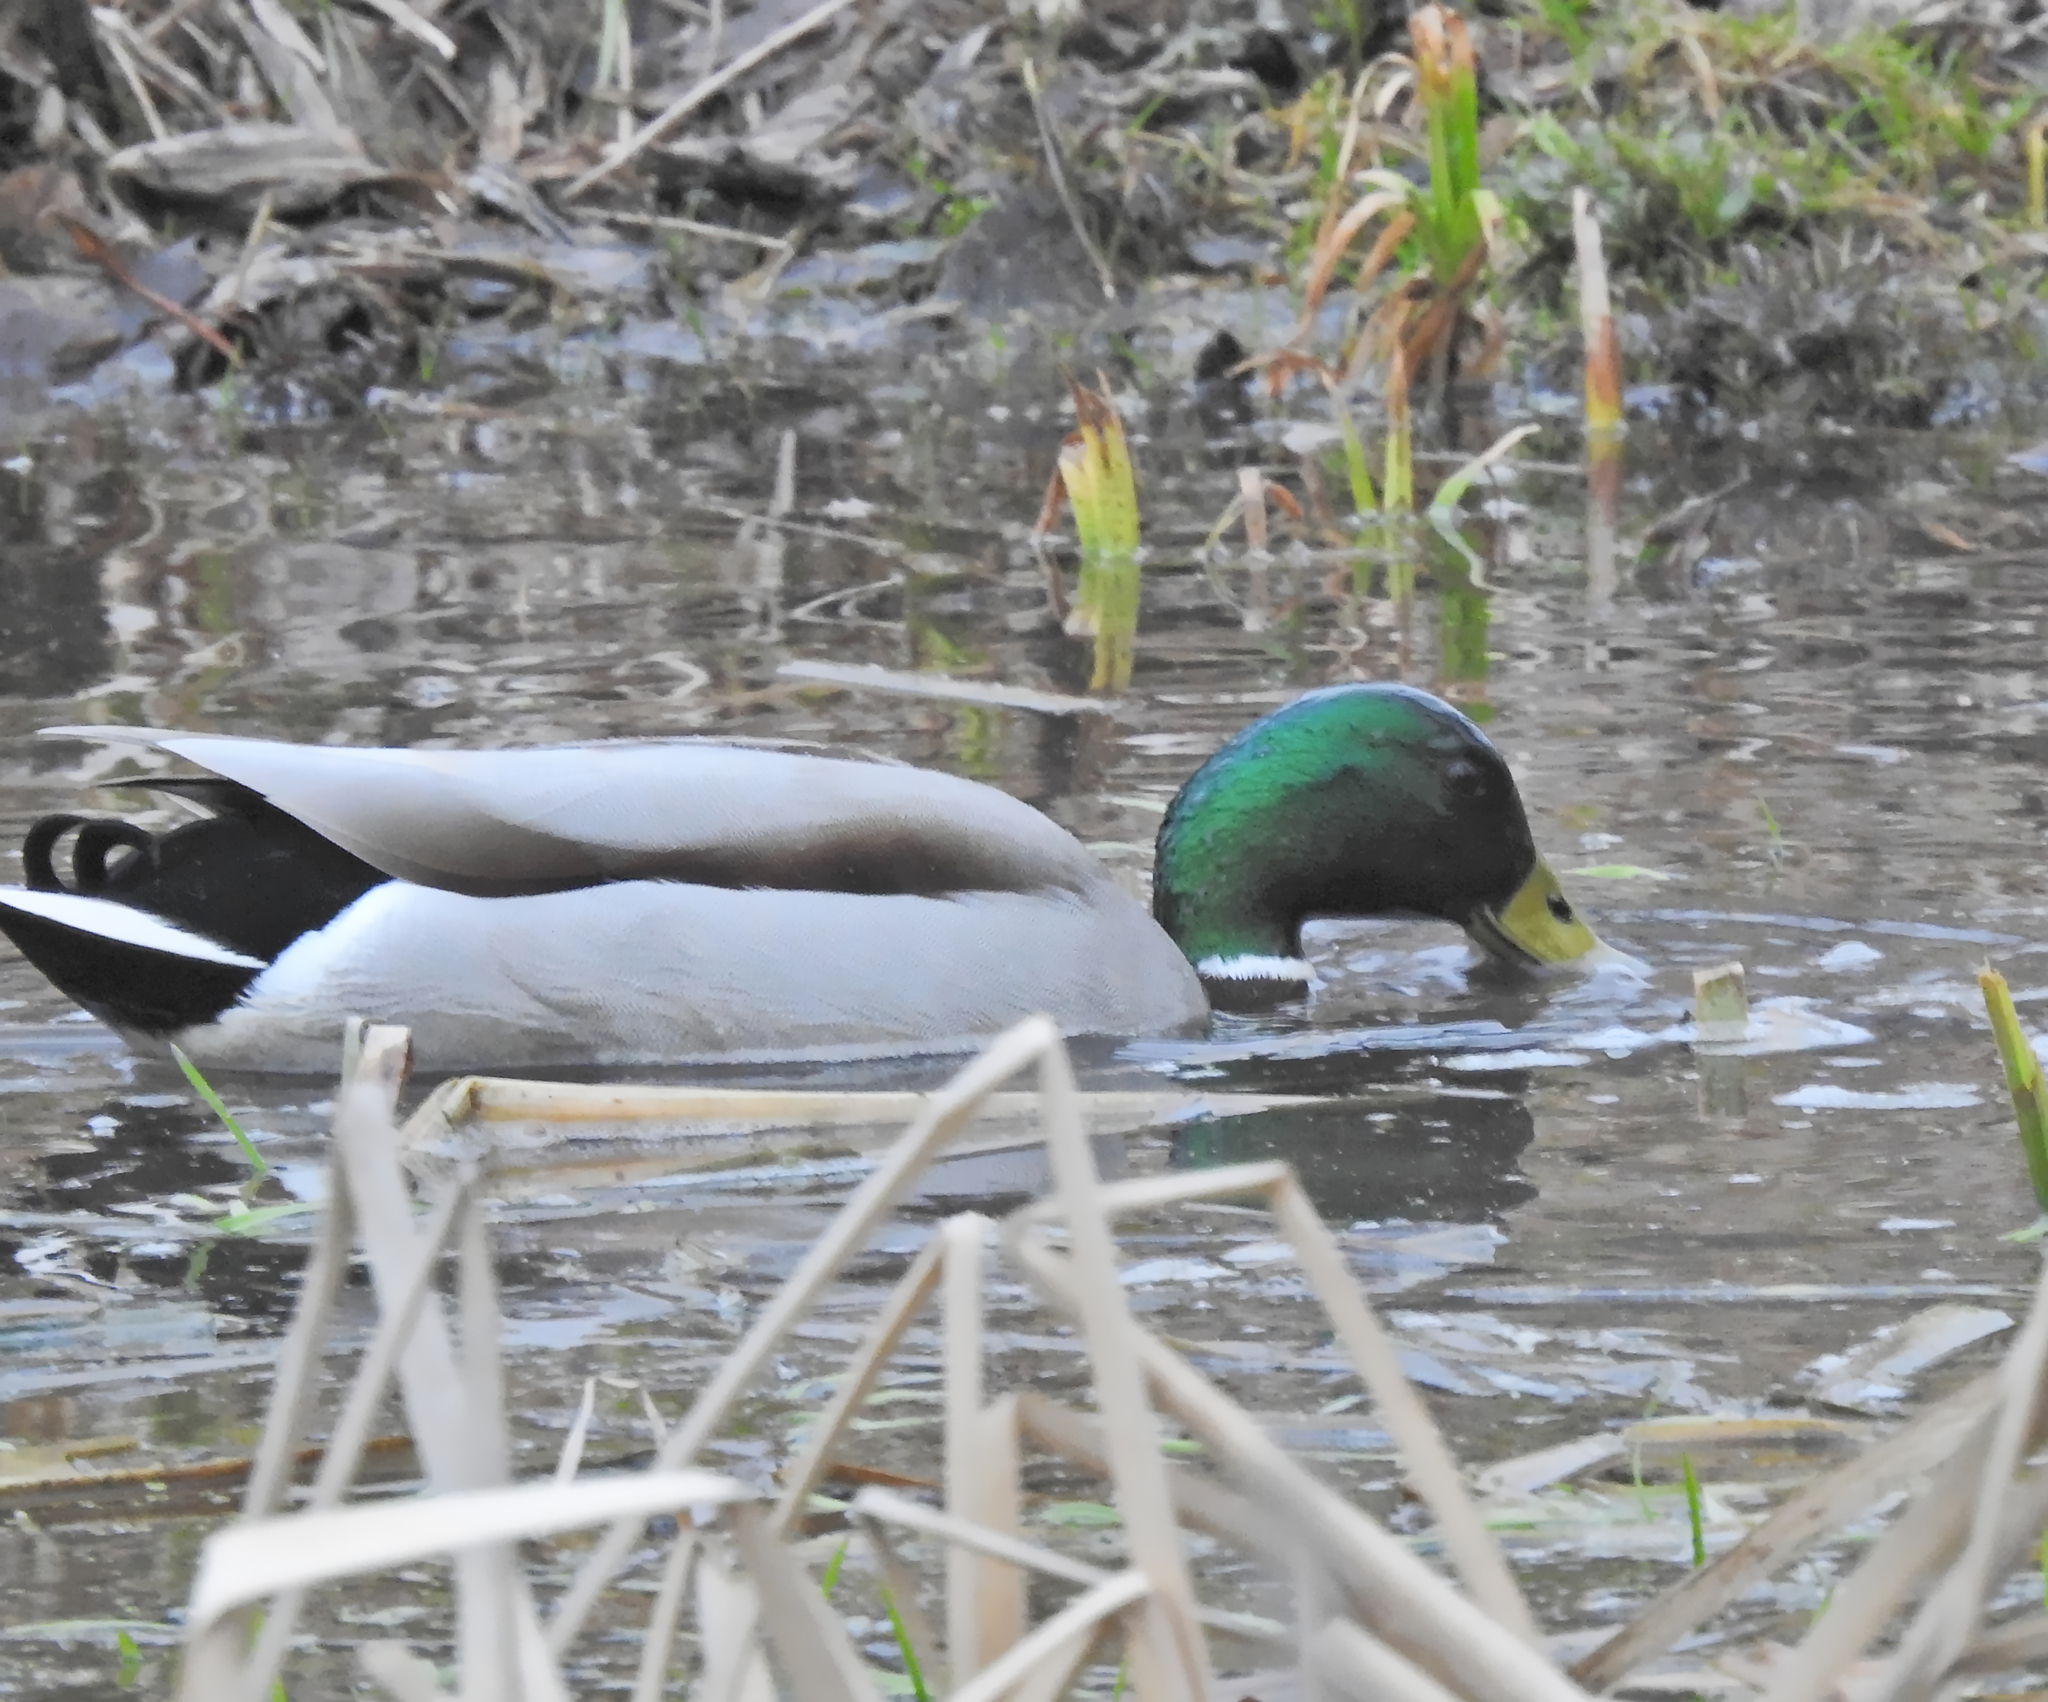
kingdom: Animalia
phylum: Chordata
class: Aves
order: Anseriformes
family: Anatidae
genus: Anas
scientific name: Anas platyrhynchos
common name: Mallard
